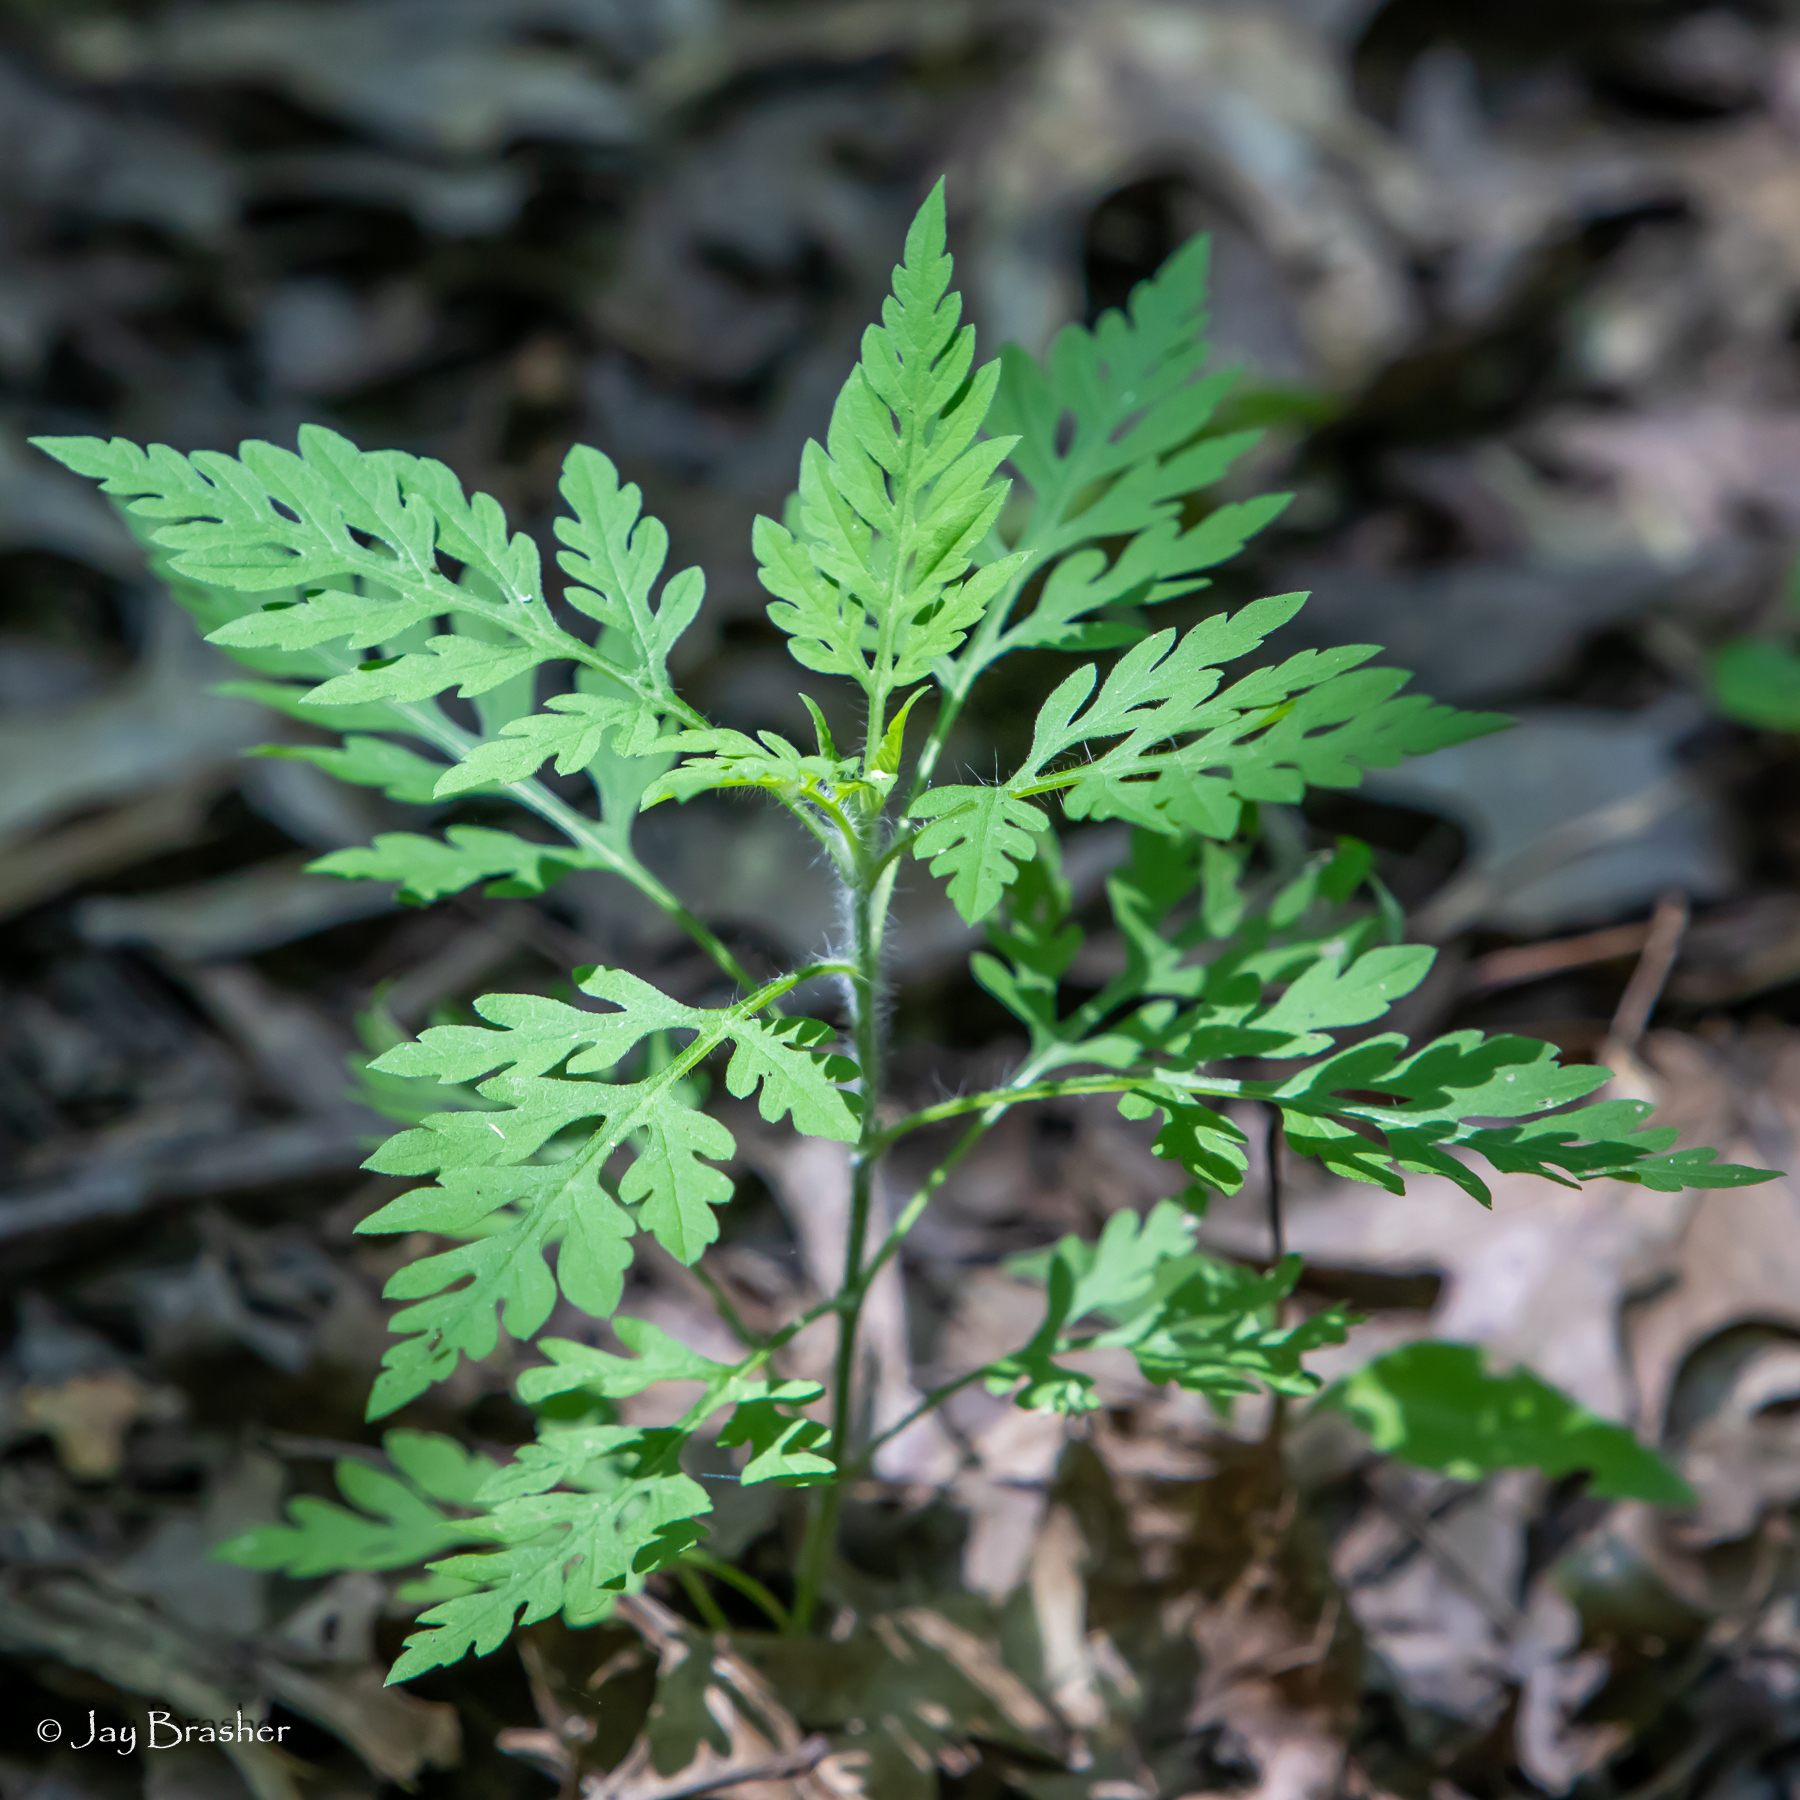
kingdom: Plantae
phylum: Tracheophyta
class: Magnoliopsida
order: Asterales
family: Asteraceae
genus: Ambrosia
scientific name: Ambrosia artemisiifolia
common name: Annual ragweed
